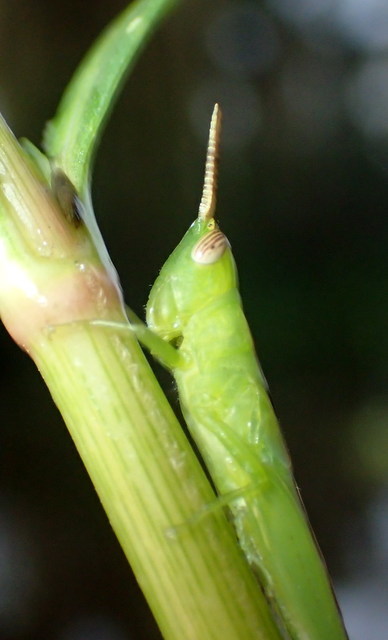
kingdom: Animalia
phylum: Arthropoda
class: Insecta
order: Orthoptera
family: Acrididae
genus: Stenacris
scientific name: Stenacris vitreipennis
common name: Glassy-winged toothpick grasshopper
